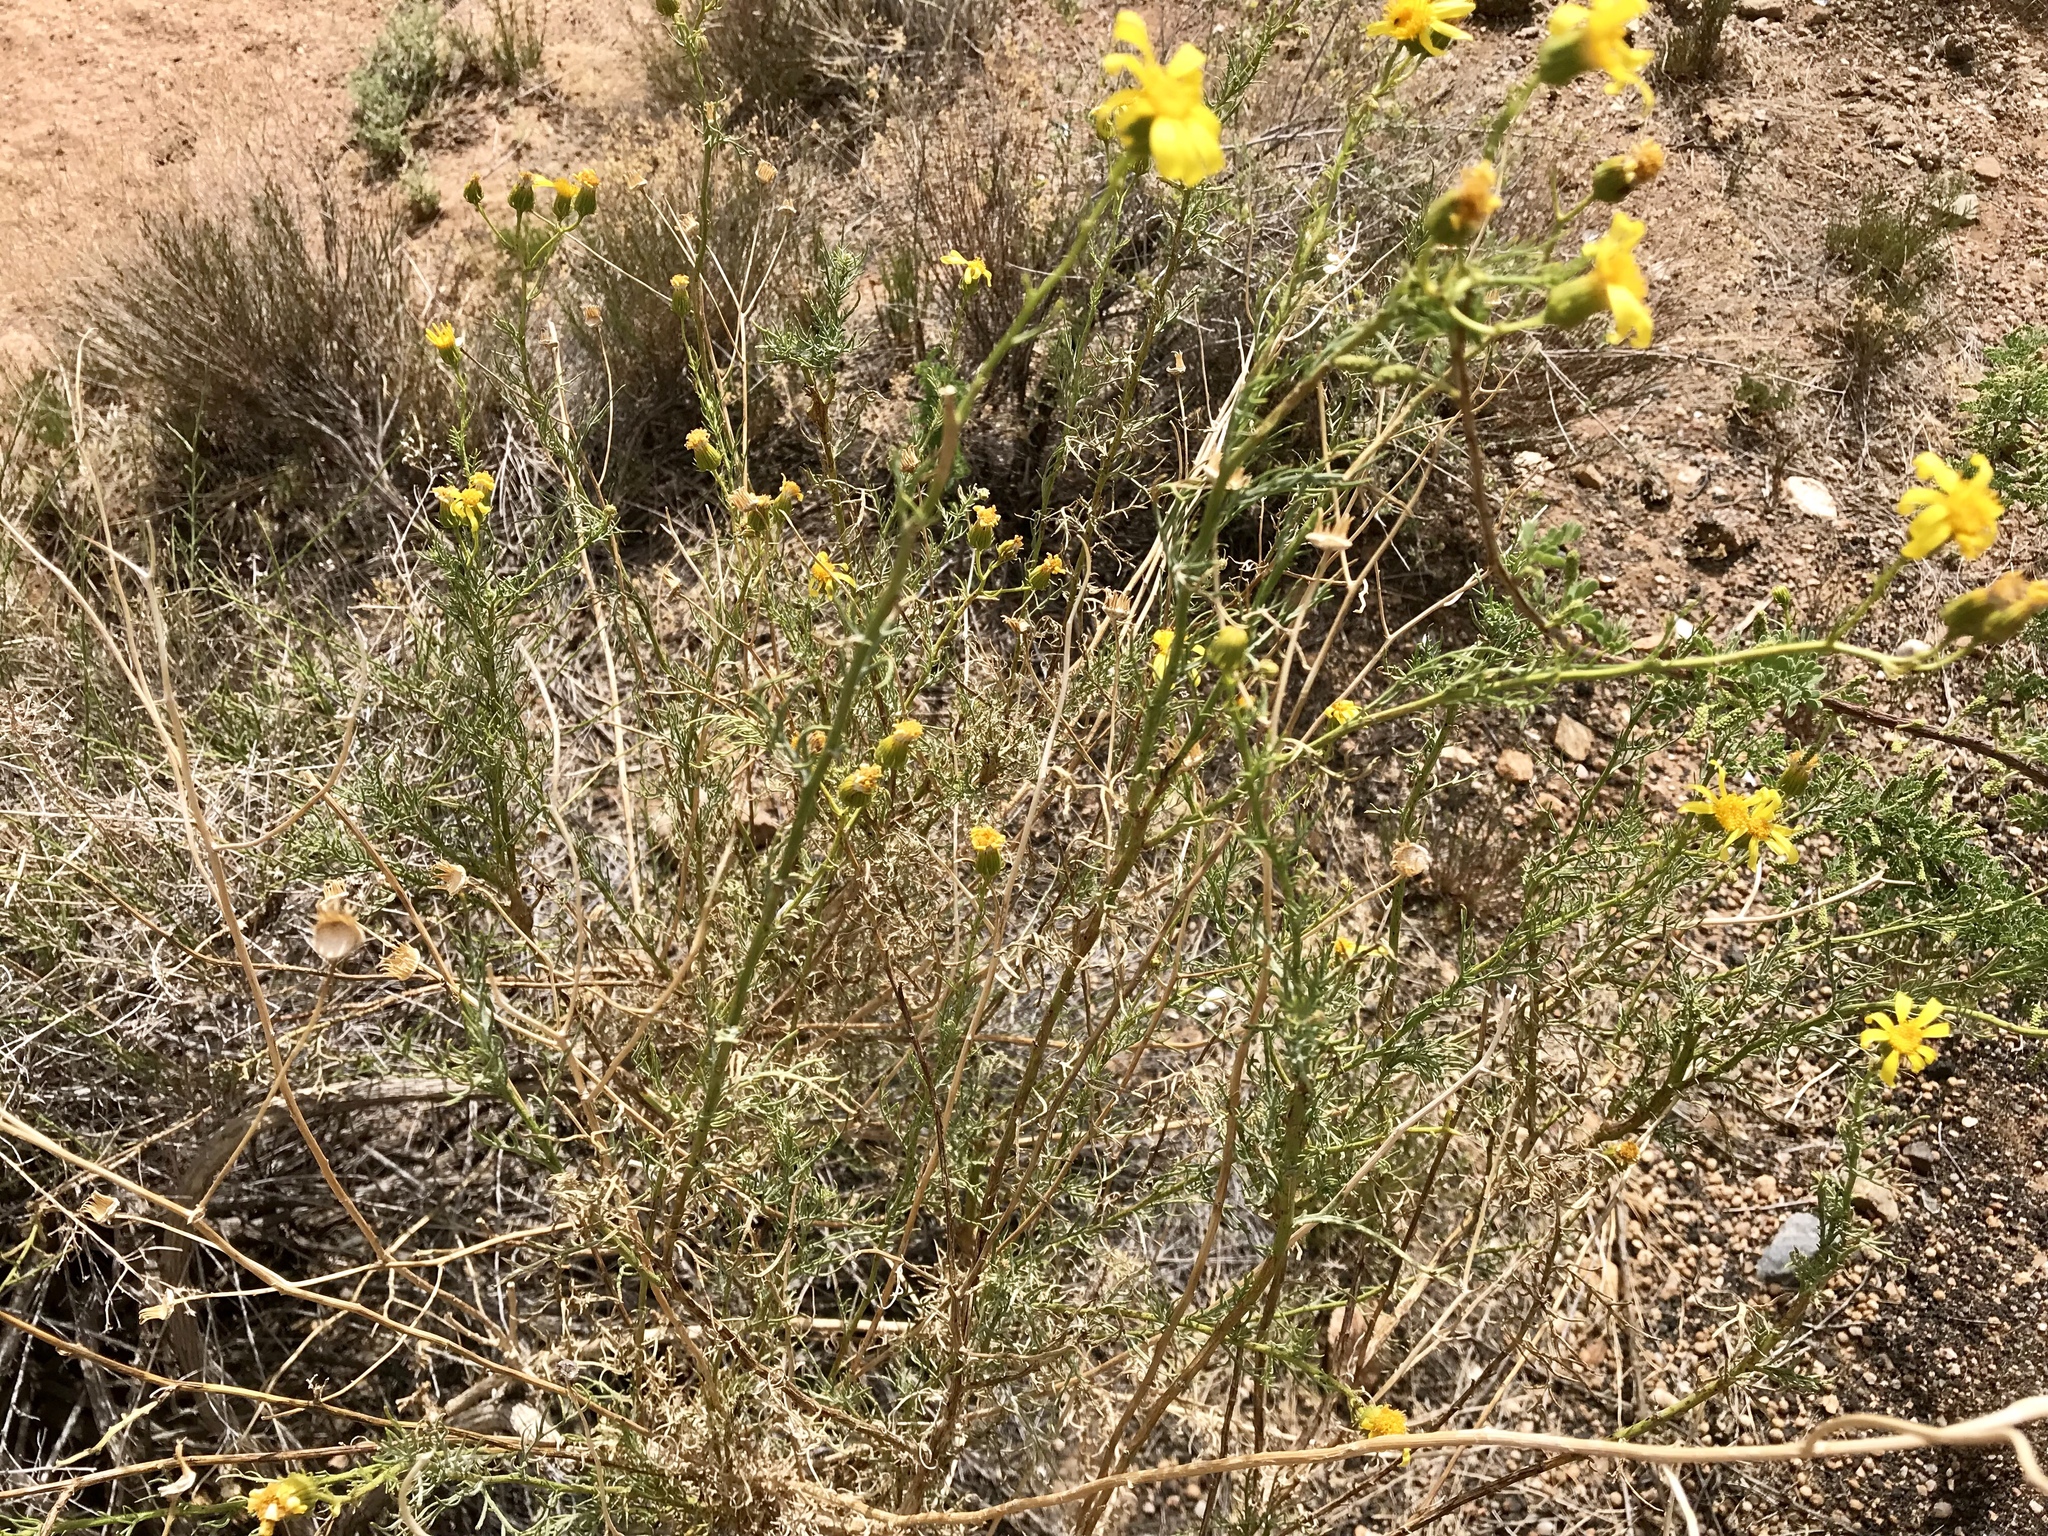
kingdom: Plantae
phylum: Tracheophyta
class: Magnoliopsida
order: Asterales
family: Asteraceae
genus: Senecio
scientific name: Senecio flaccidus
